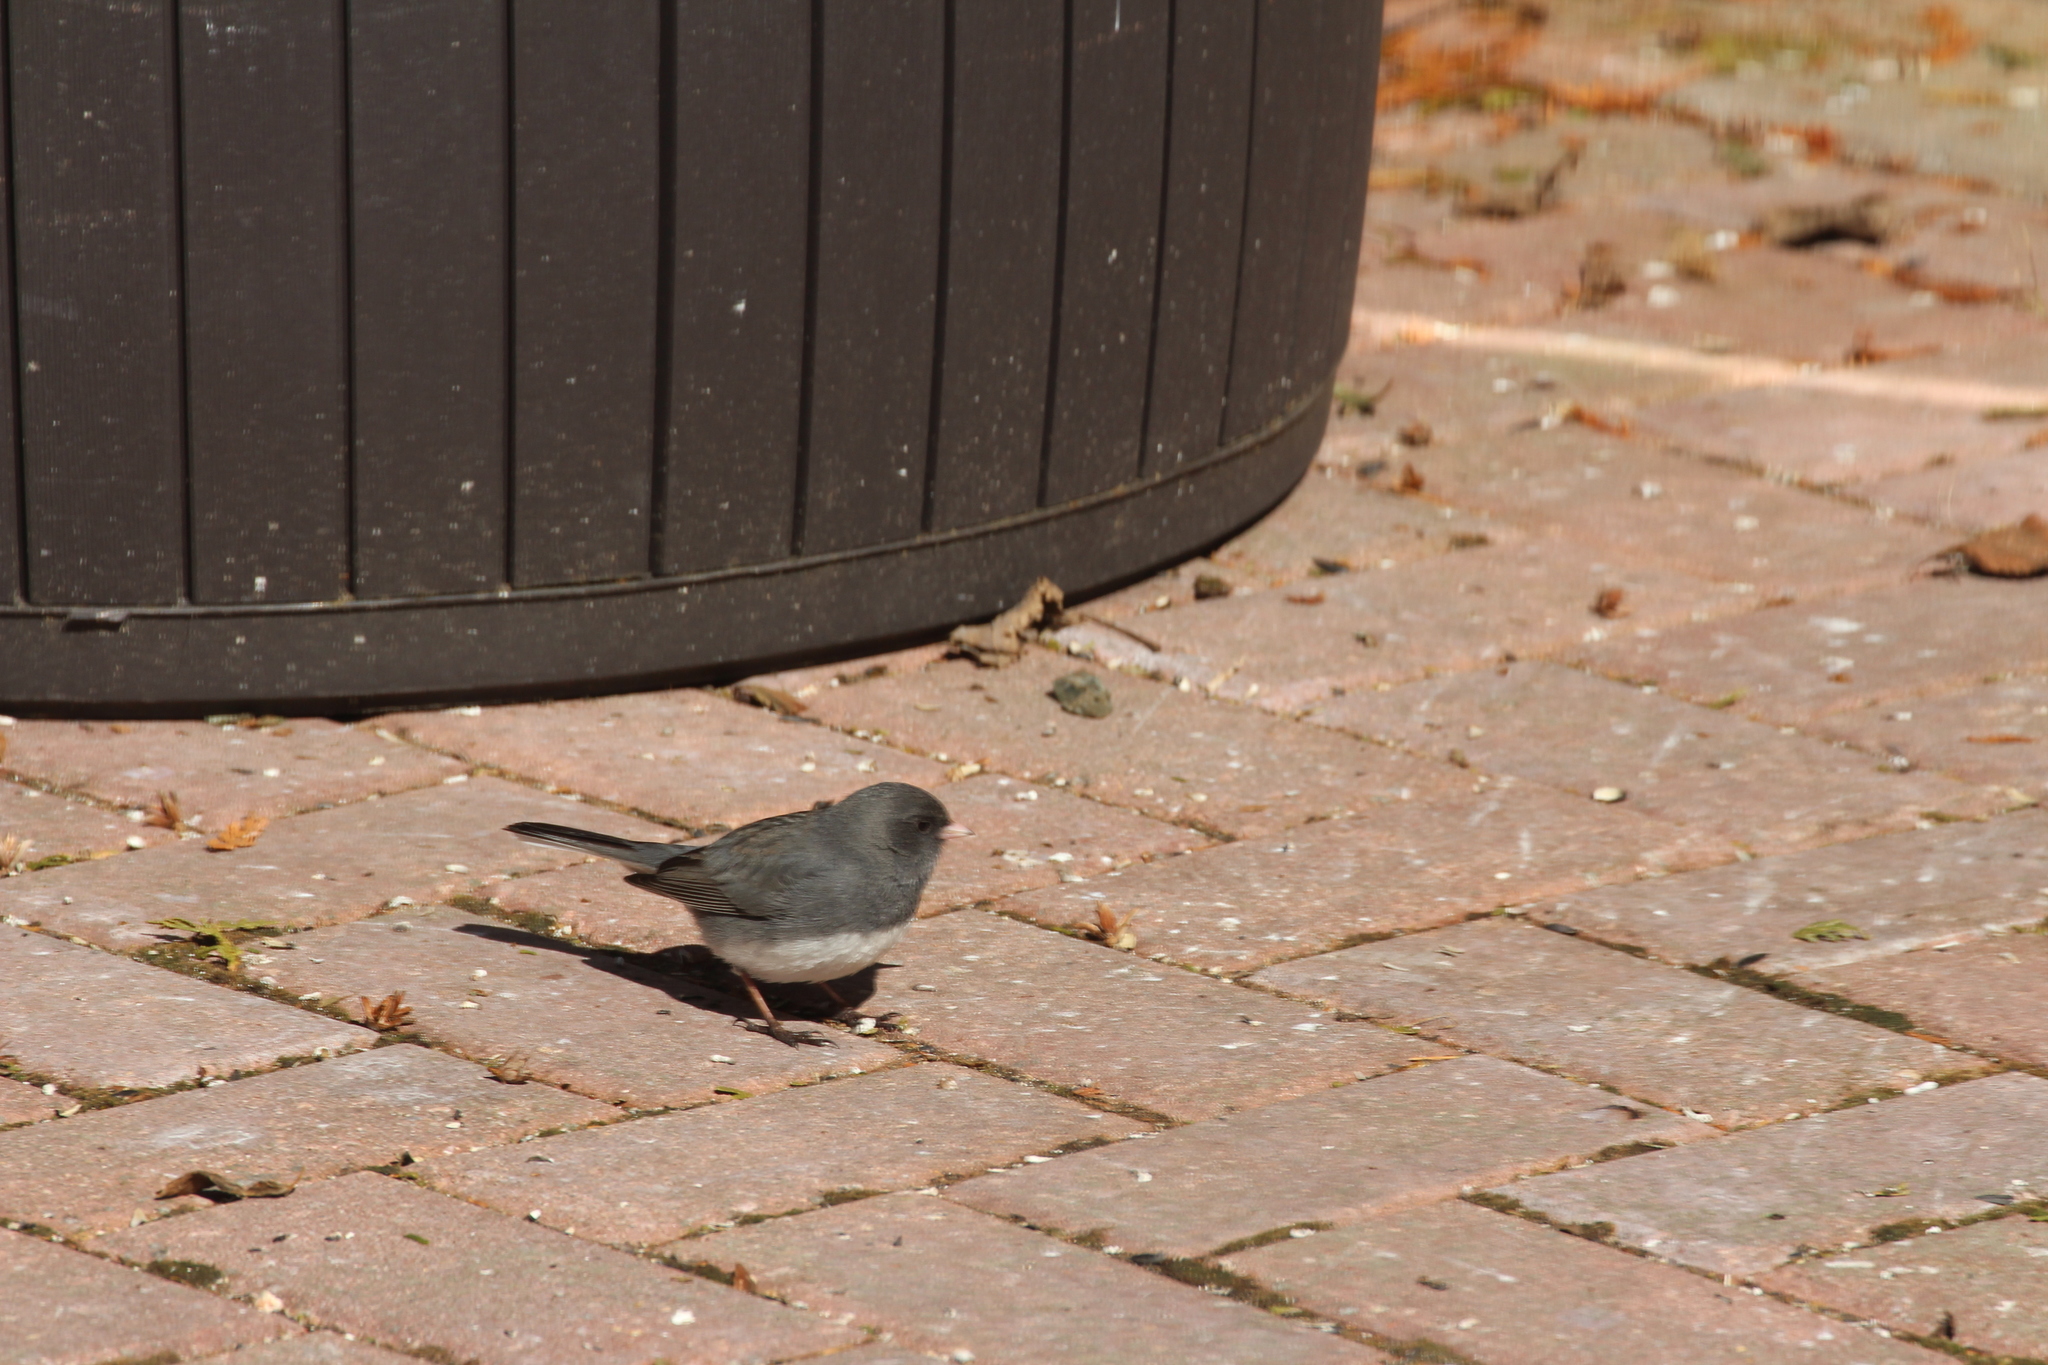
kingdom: Animalia
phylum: Chordata
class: Aves
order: Passeriformes
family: Passerellidae
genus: Junco
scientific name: Junco hyemalis
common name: Dark-eyed junco
